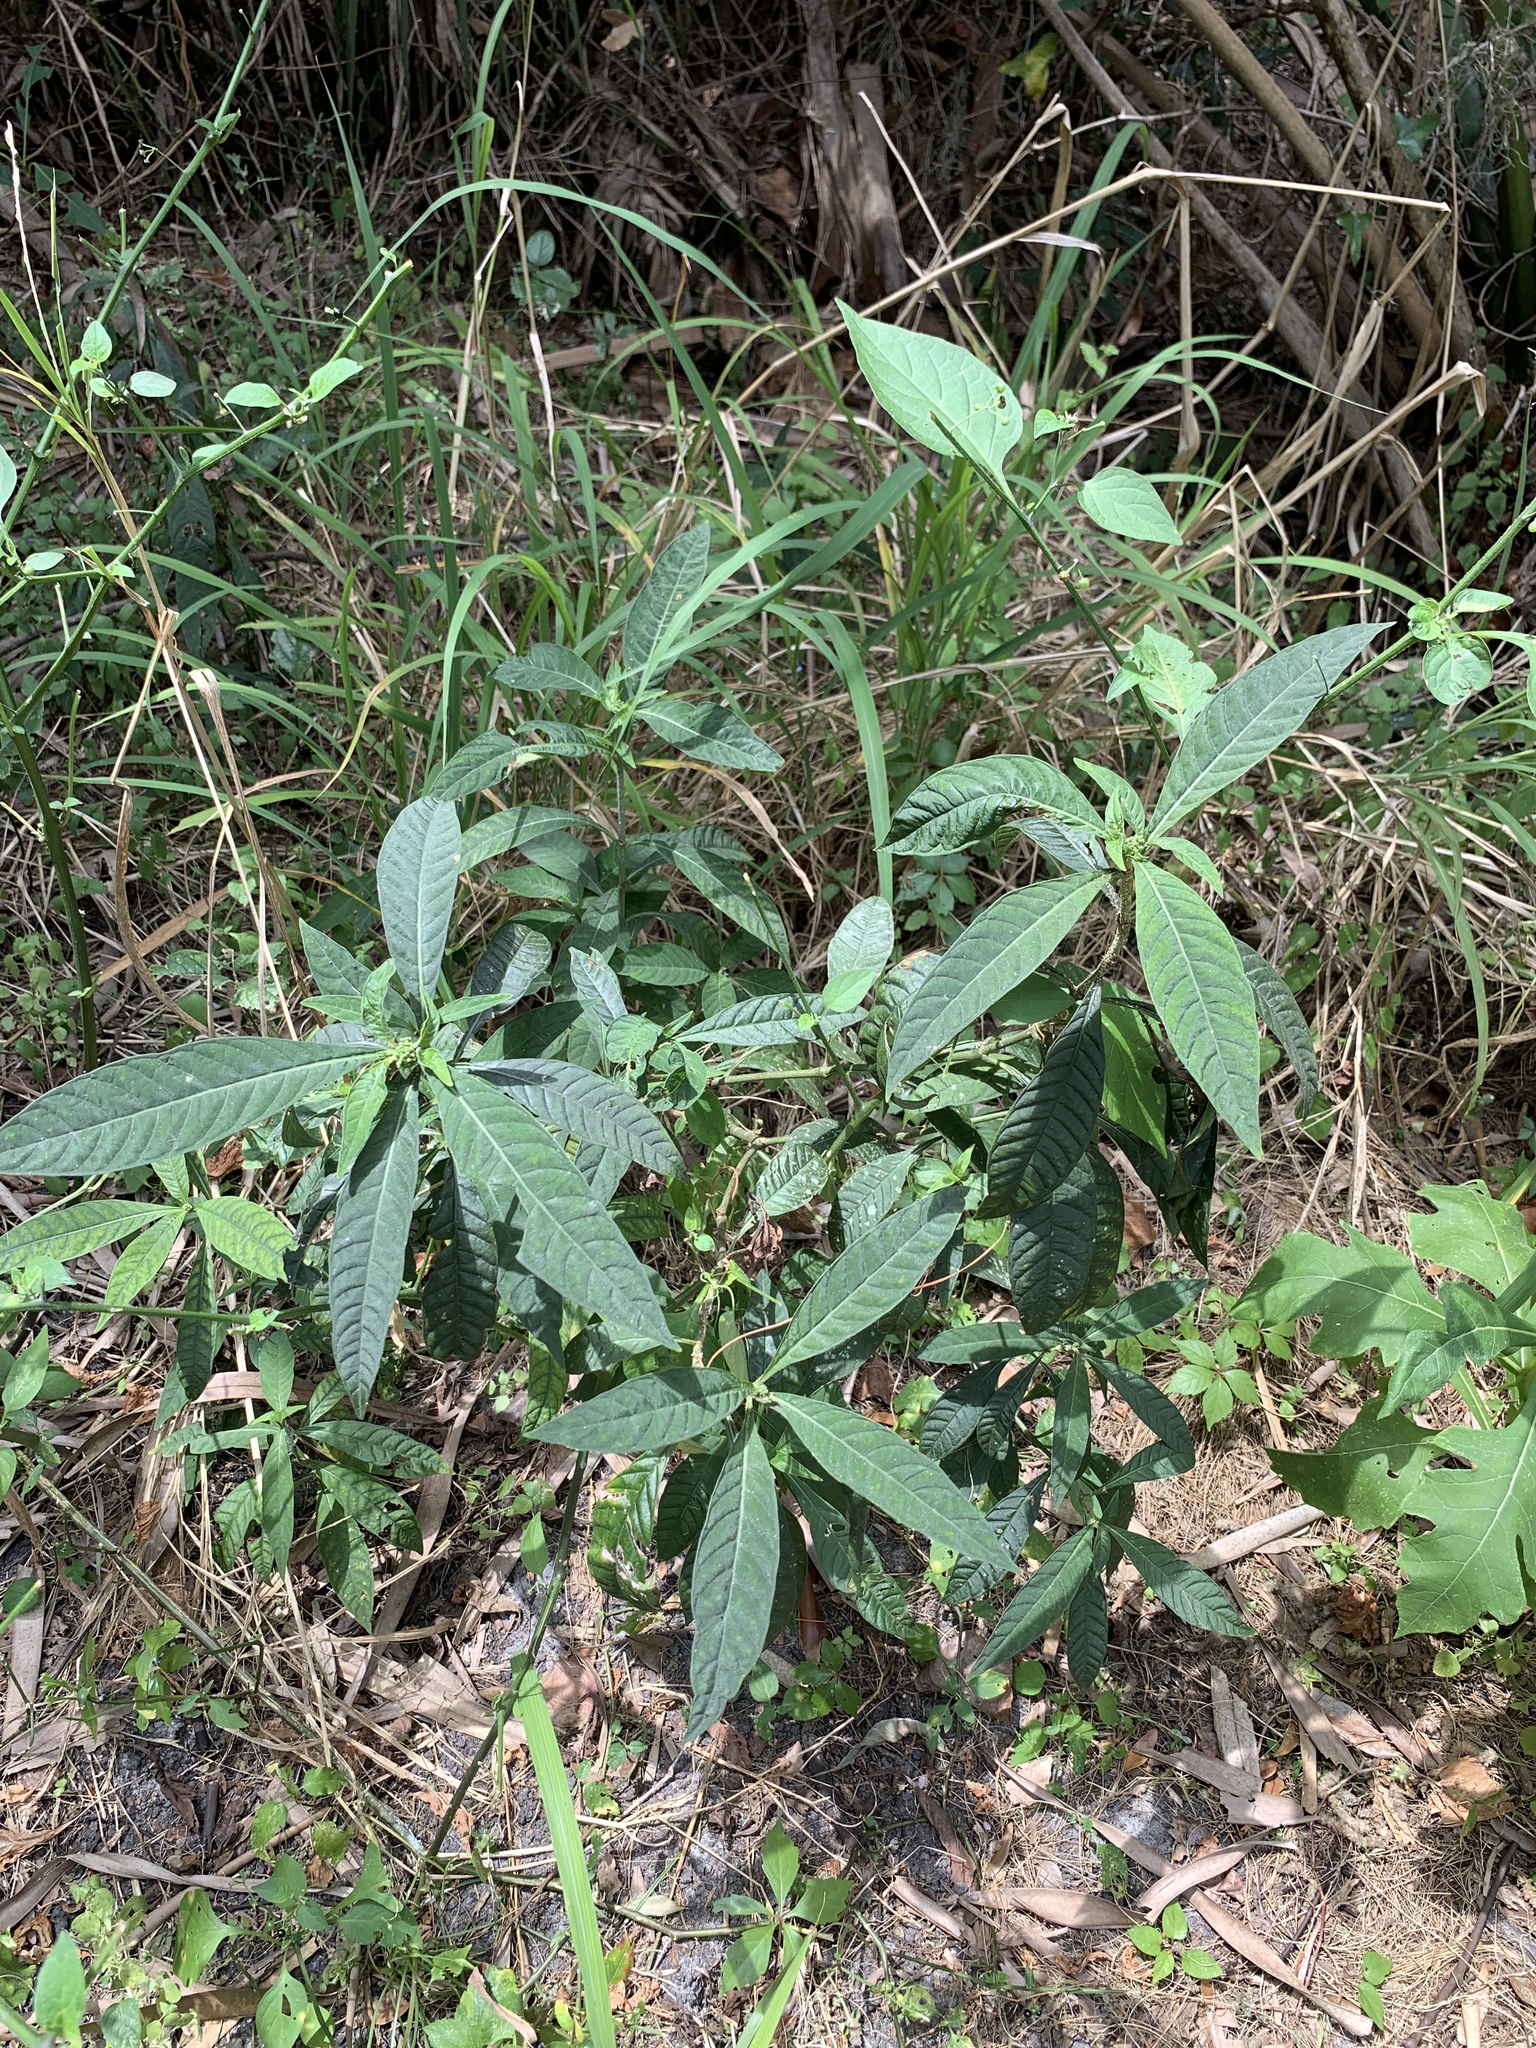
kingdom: Plantae
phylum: Tracheophyta
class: Magnoliopsida
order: Gentianales
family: Rubiaceae
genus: Psychotria
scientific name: Psychotria tenuifolia
